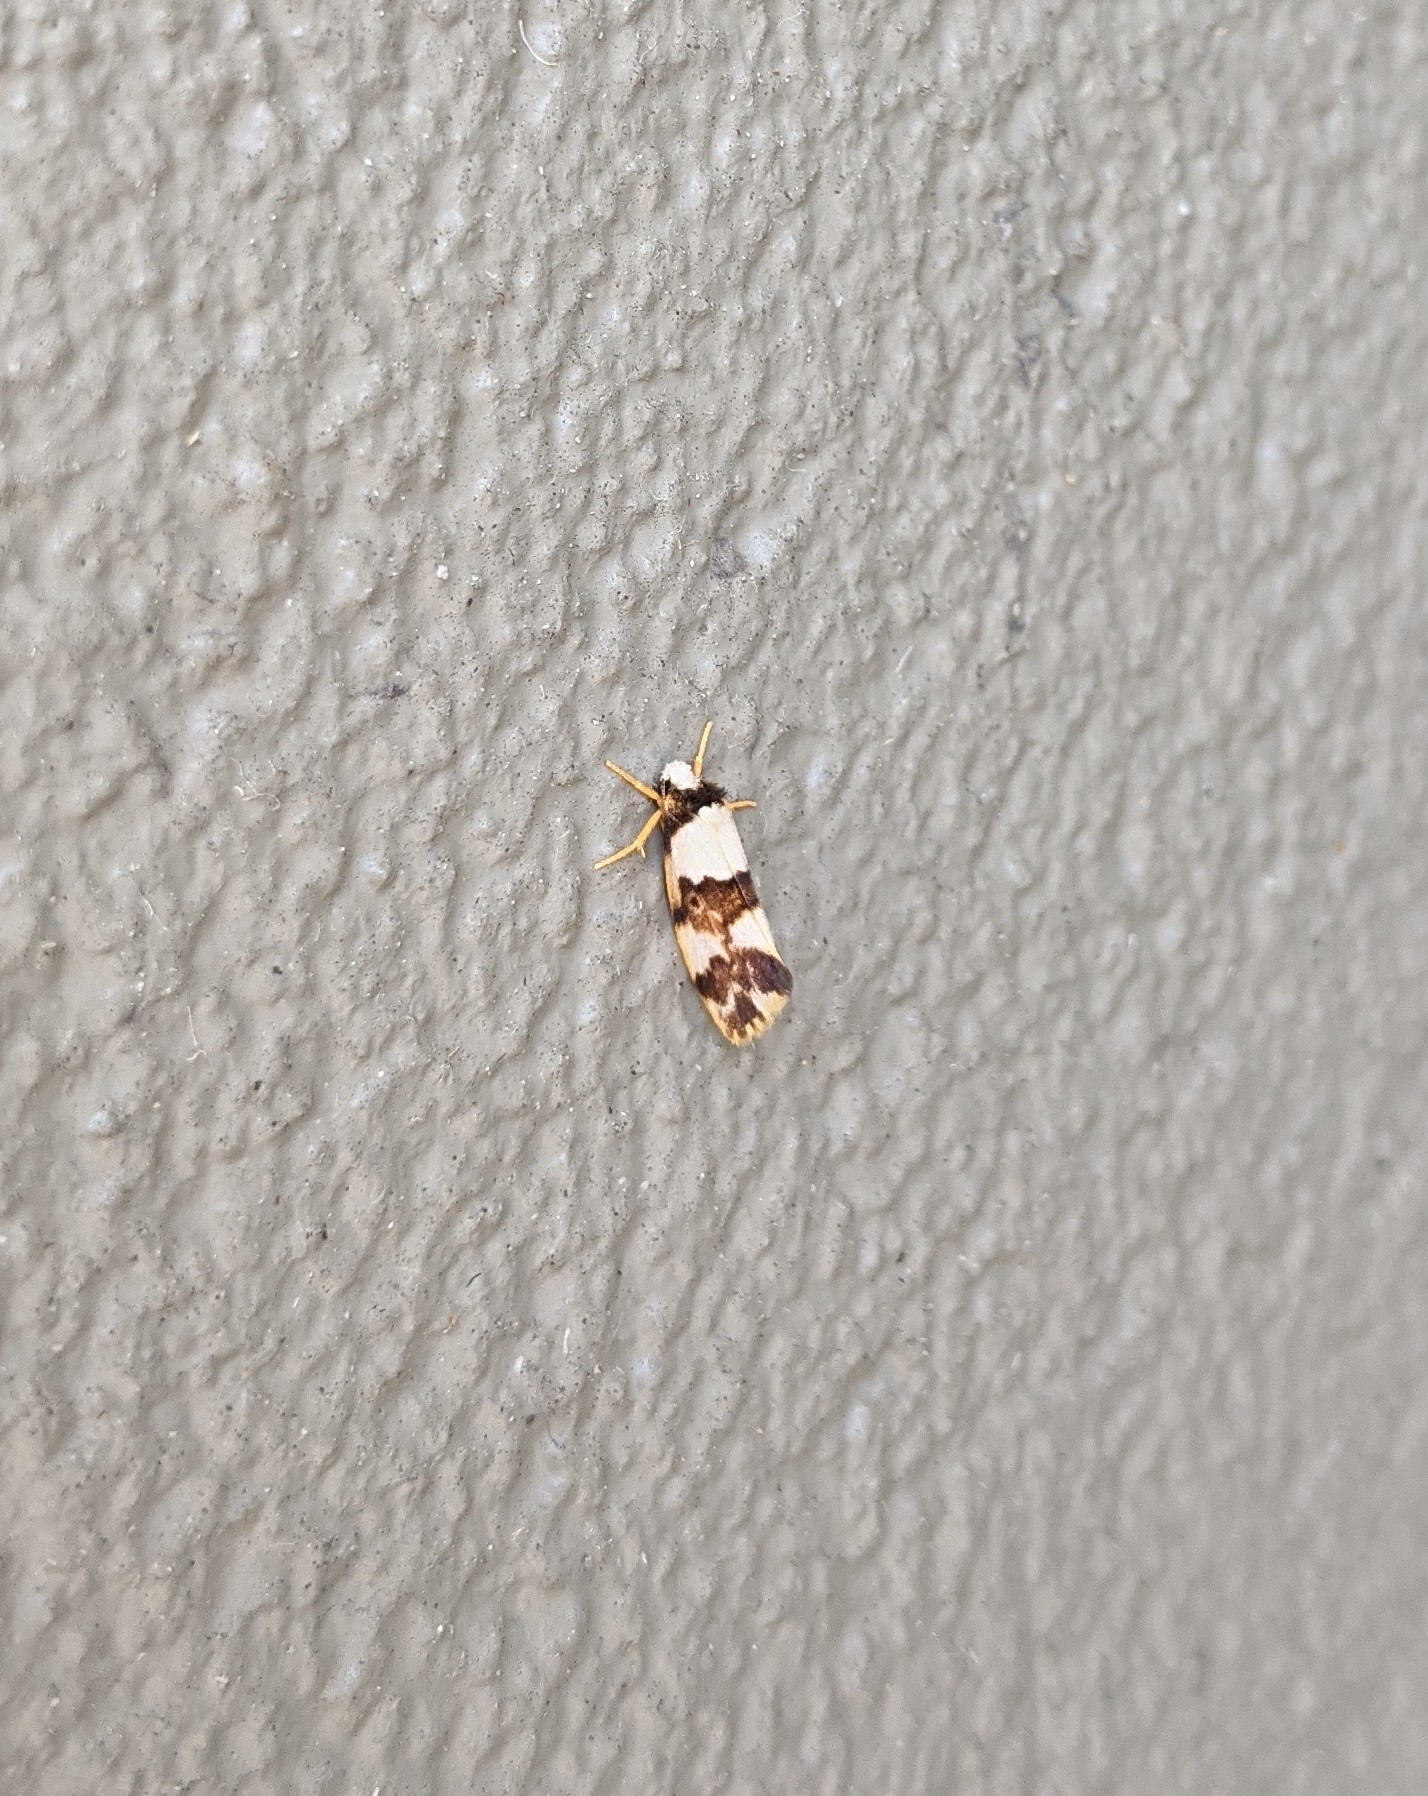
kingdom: Animalia
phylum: Arthropoda
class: Insecta
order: Lepidoptera
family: Erebidae
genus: Philenora
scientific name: Philenora aspectalella
